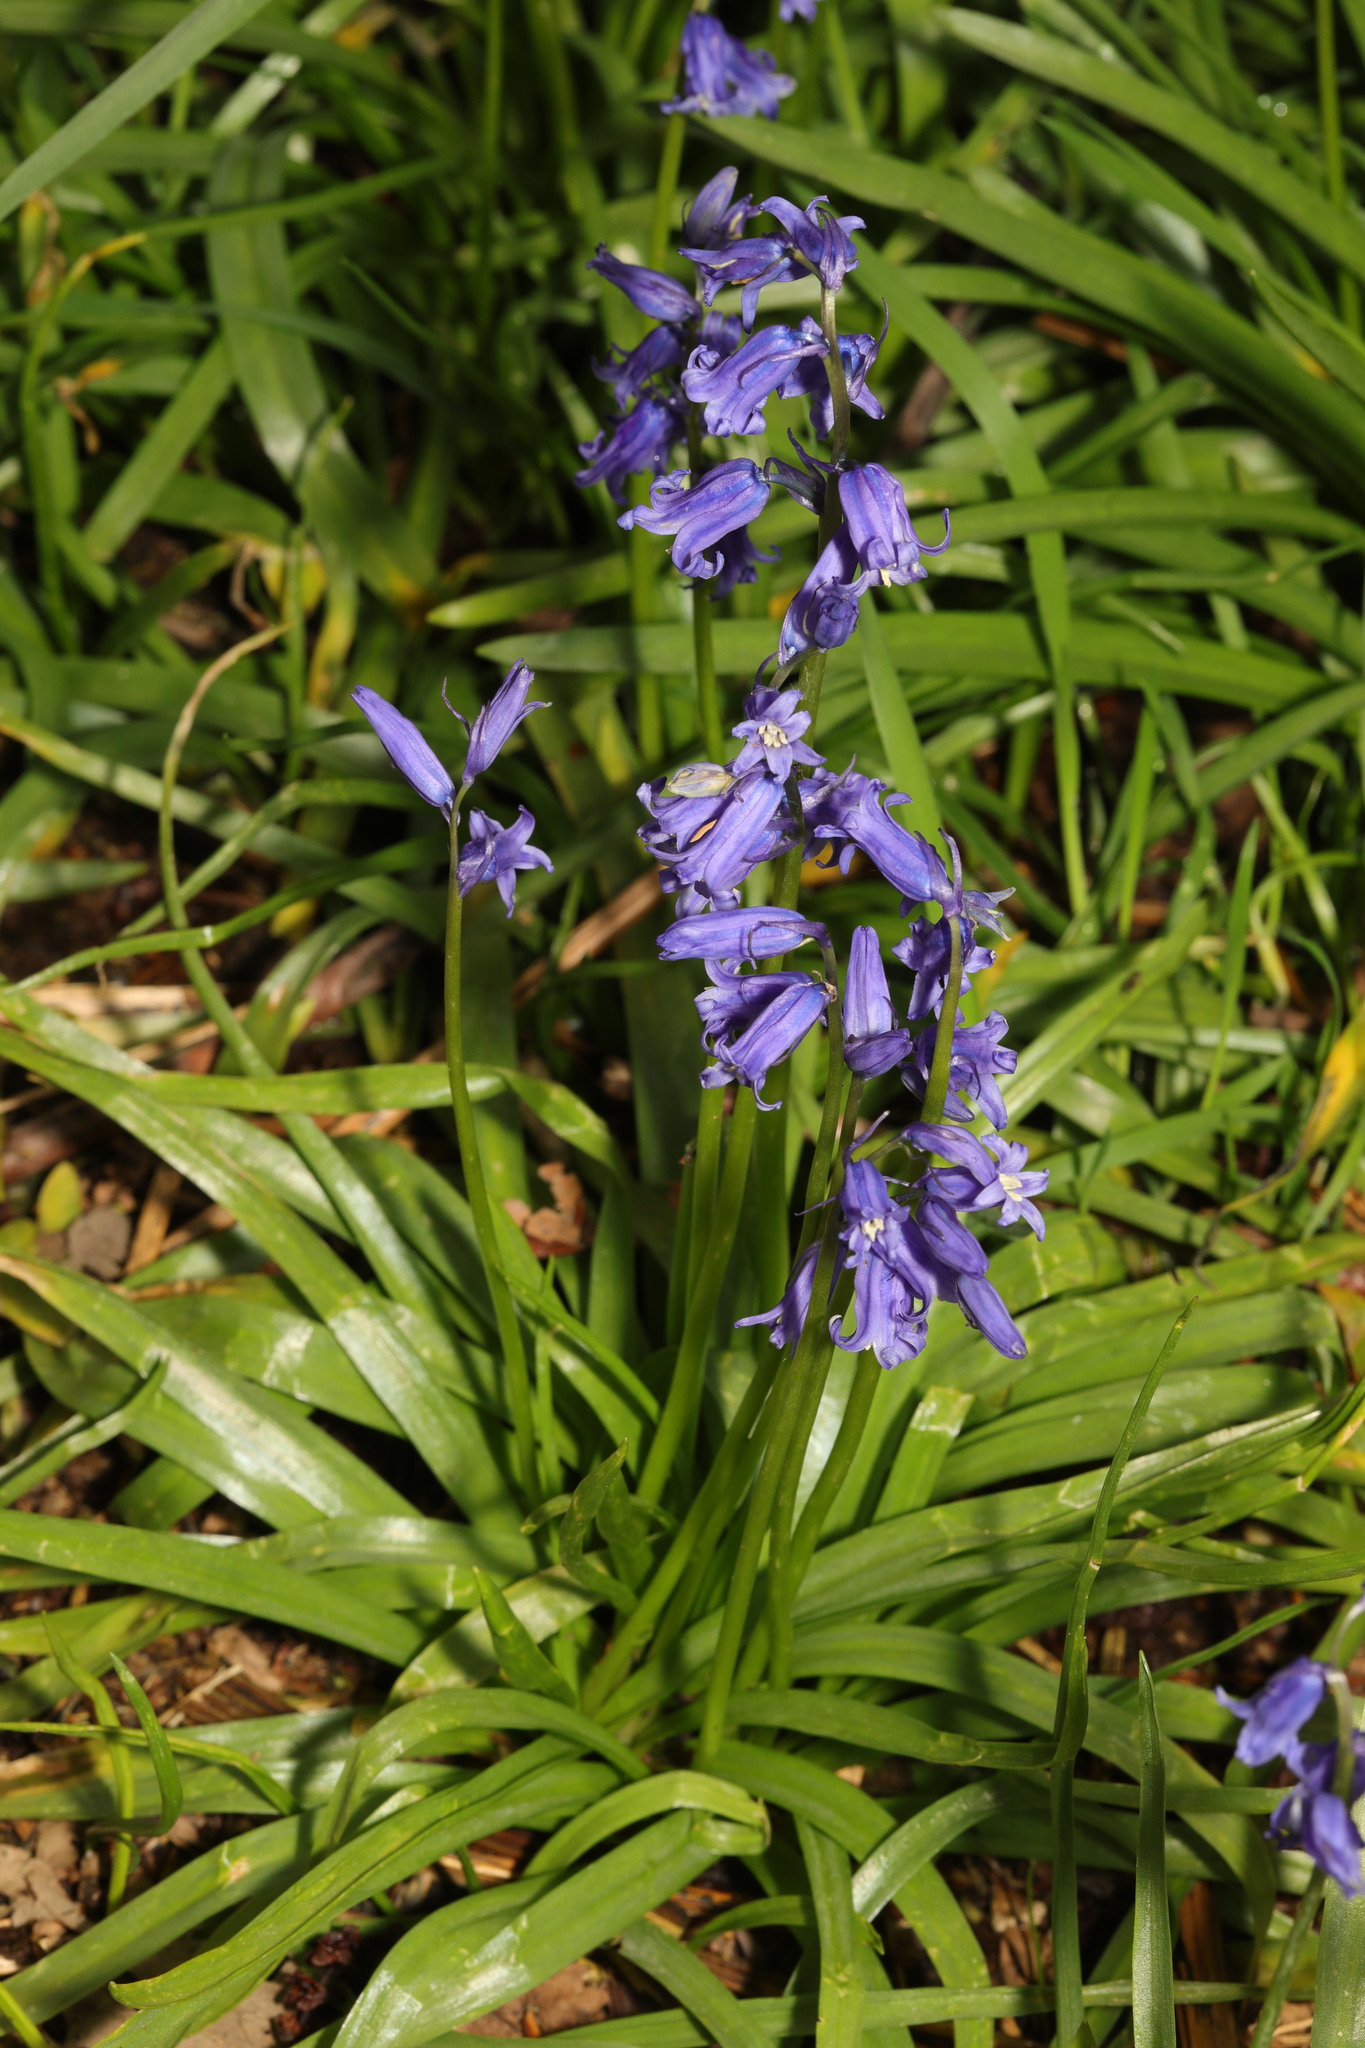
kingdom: Plantae
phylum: Tracheophyta
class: Liliopsida
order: Asparagales
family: Asparagaceae
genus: Hyacinthoides
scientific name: Hyacinthoides non-scripta
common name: Bluebell
